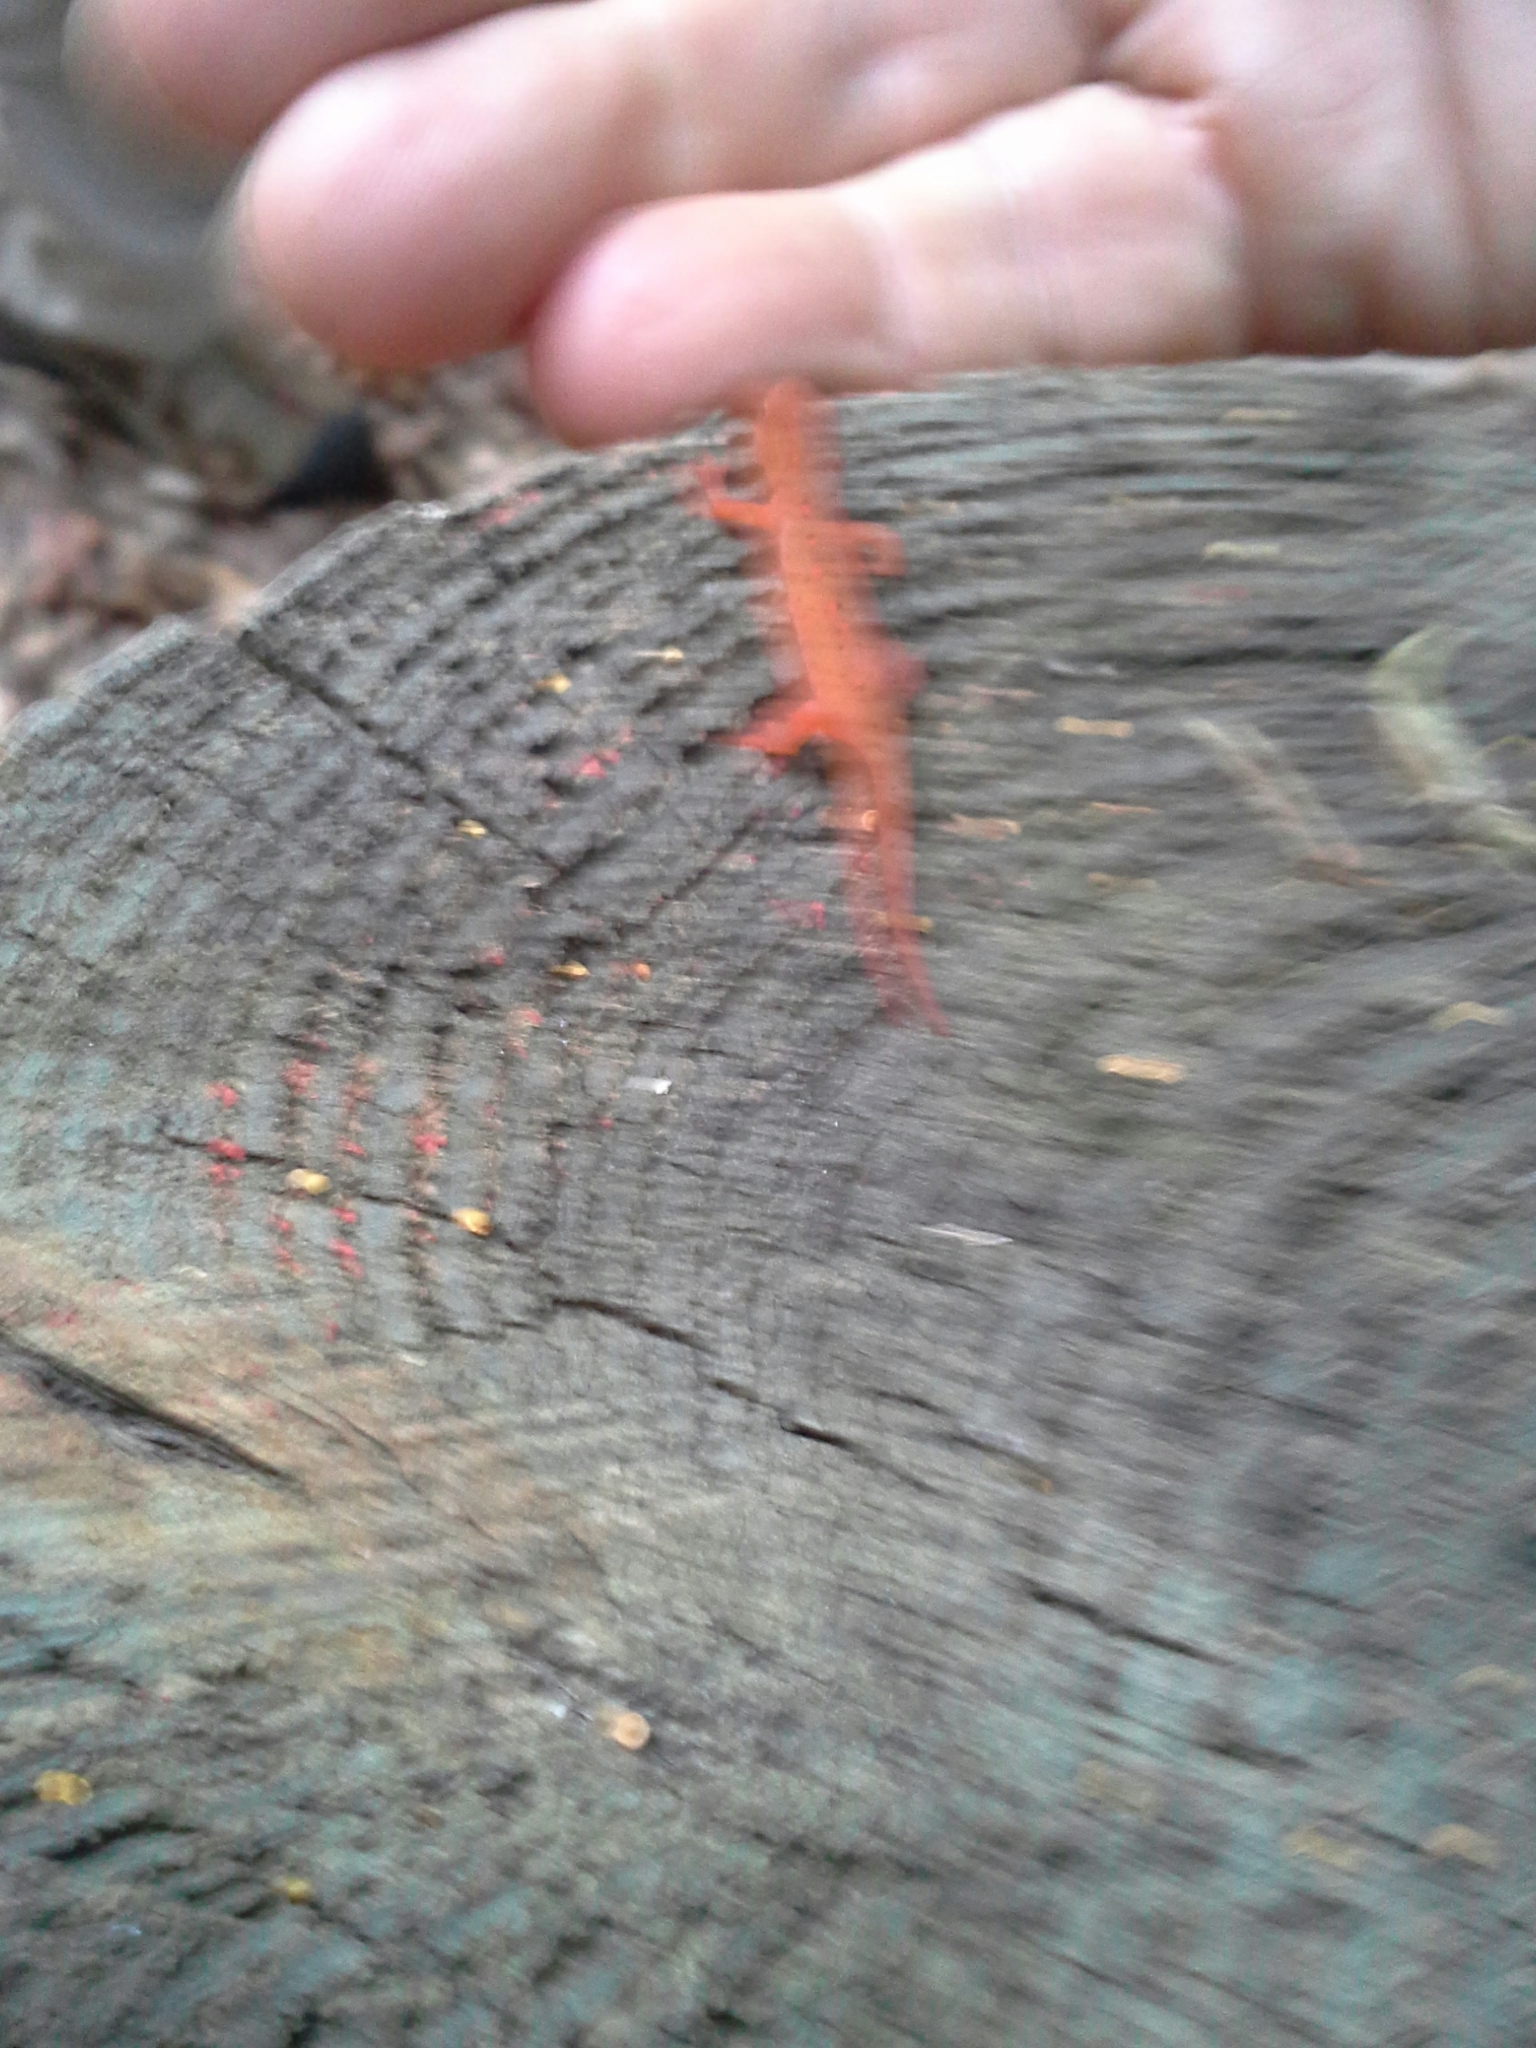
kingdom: Animalia
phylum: Chordata
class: Amphibia
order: Caudata
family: Salamandridae
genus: Notophthalmus
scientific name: Notophthalmus viridescens
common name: Eastern newt
